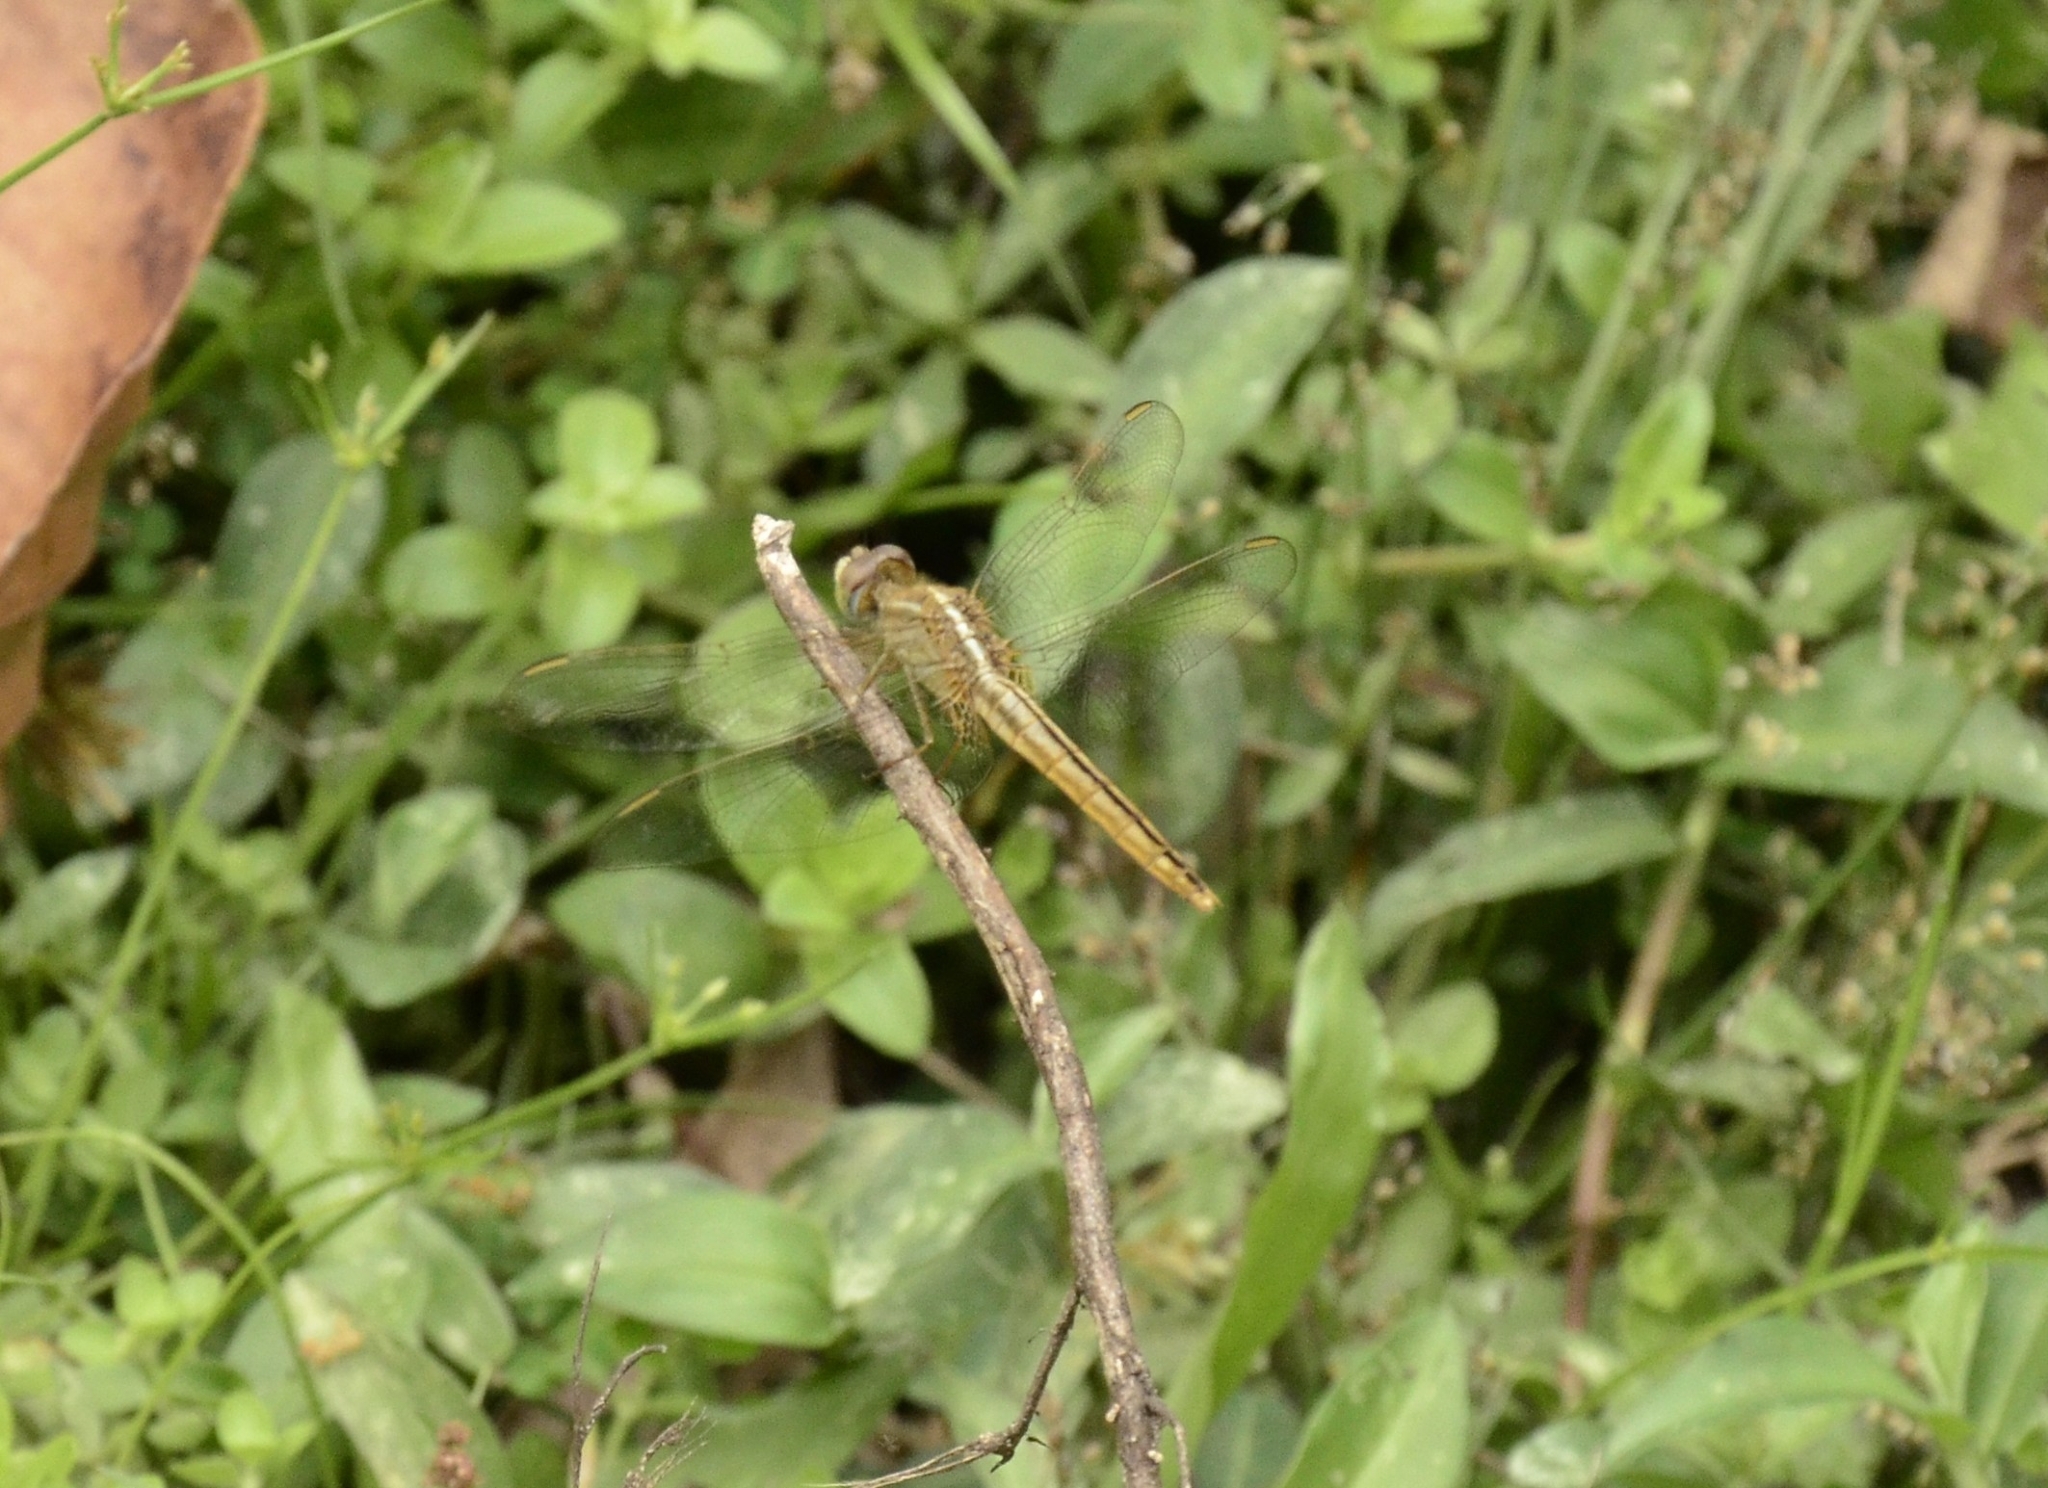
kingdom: Animalia
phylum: Arthropoda
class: Insecta
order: Odonata
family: Libellulidae
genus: Crocothemis
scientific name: Crocothemis servilia
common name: Scarlet skimmer
